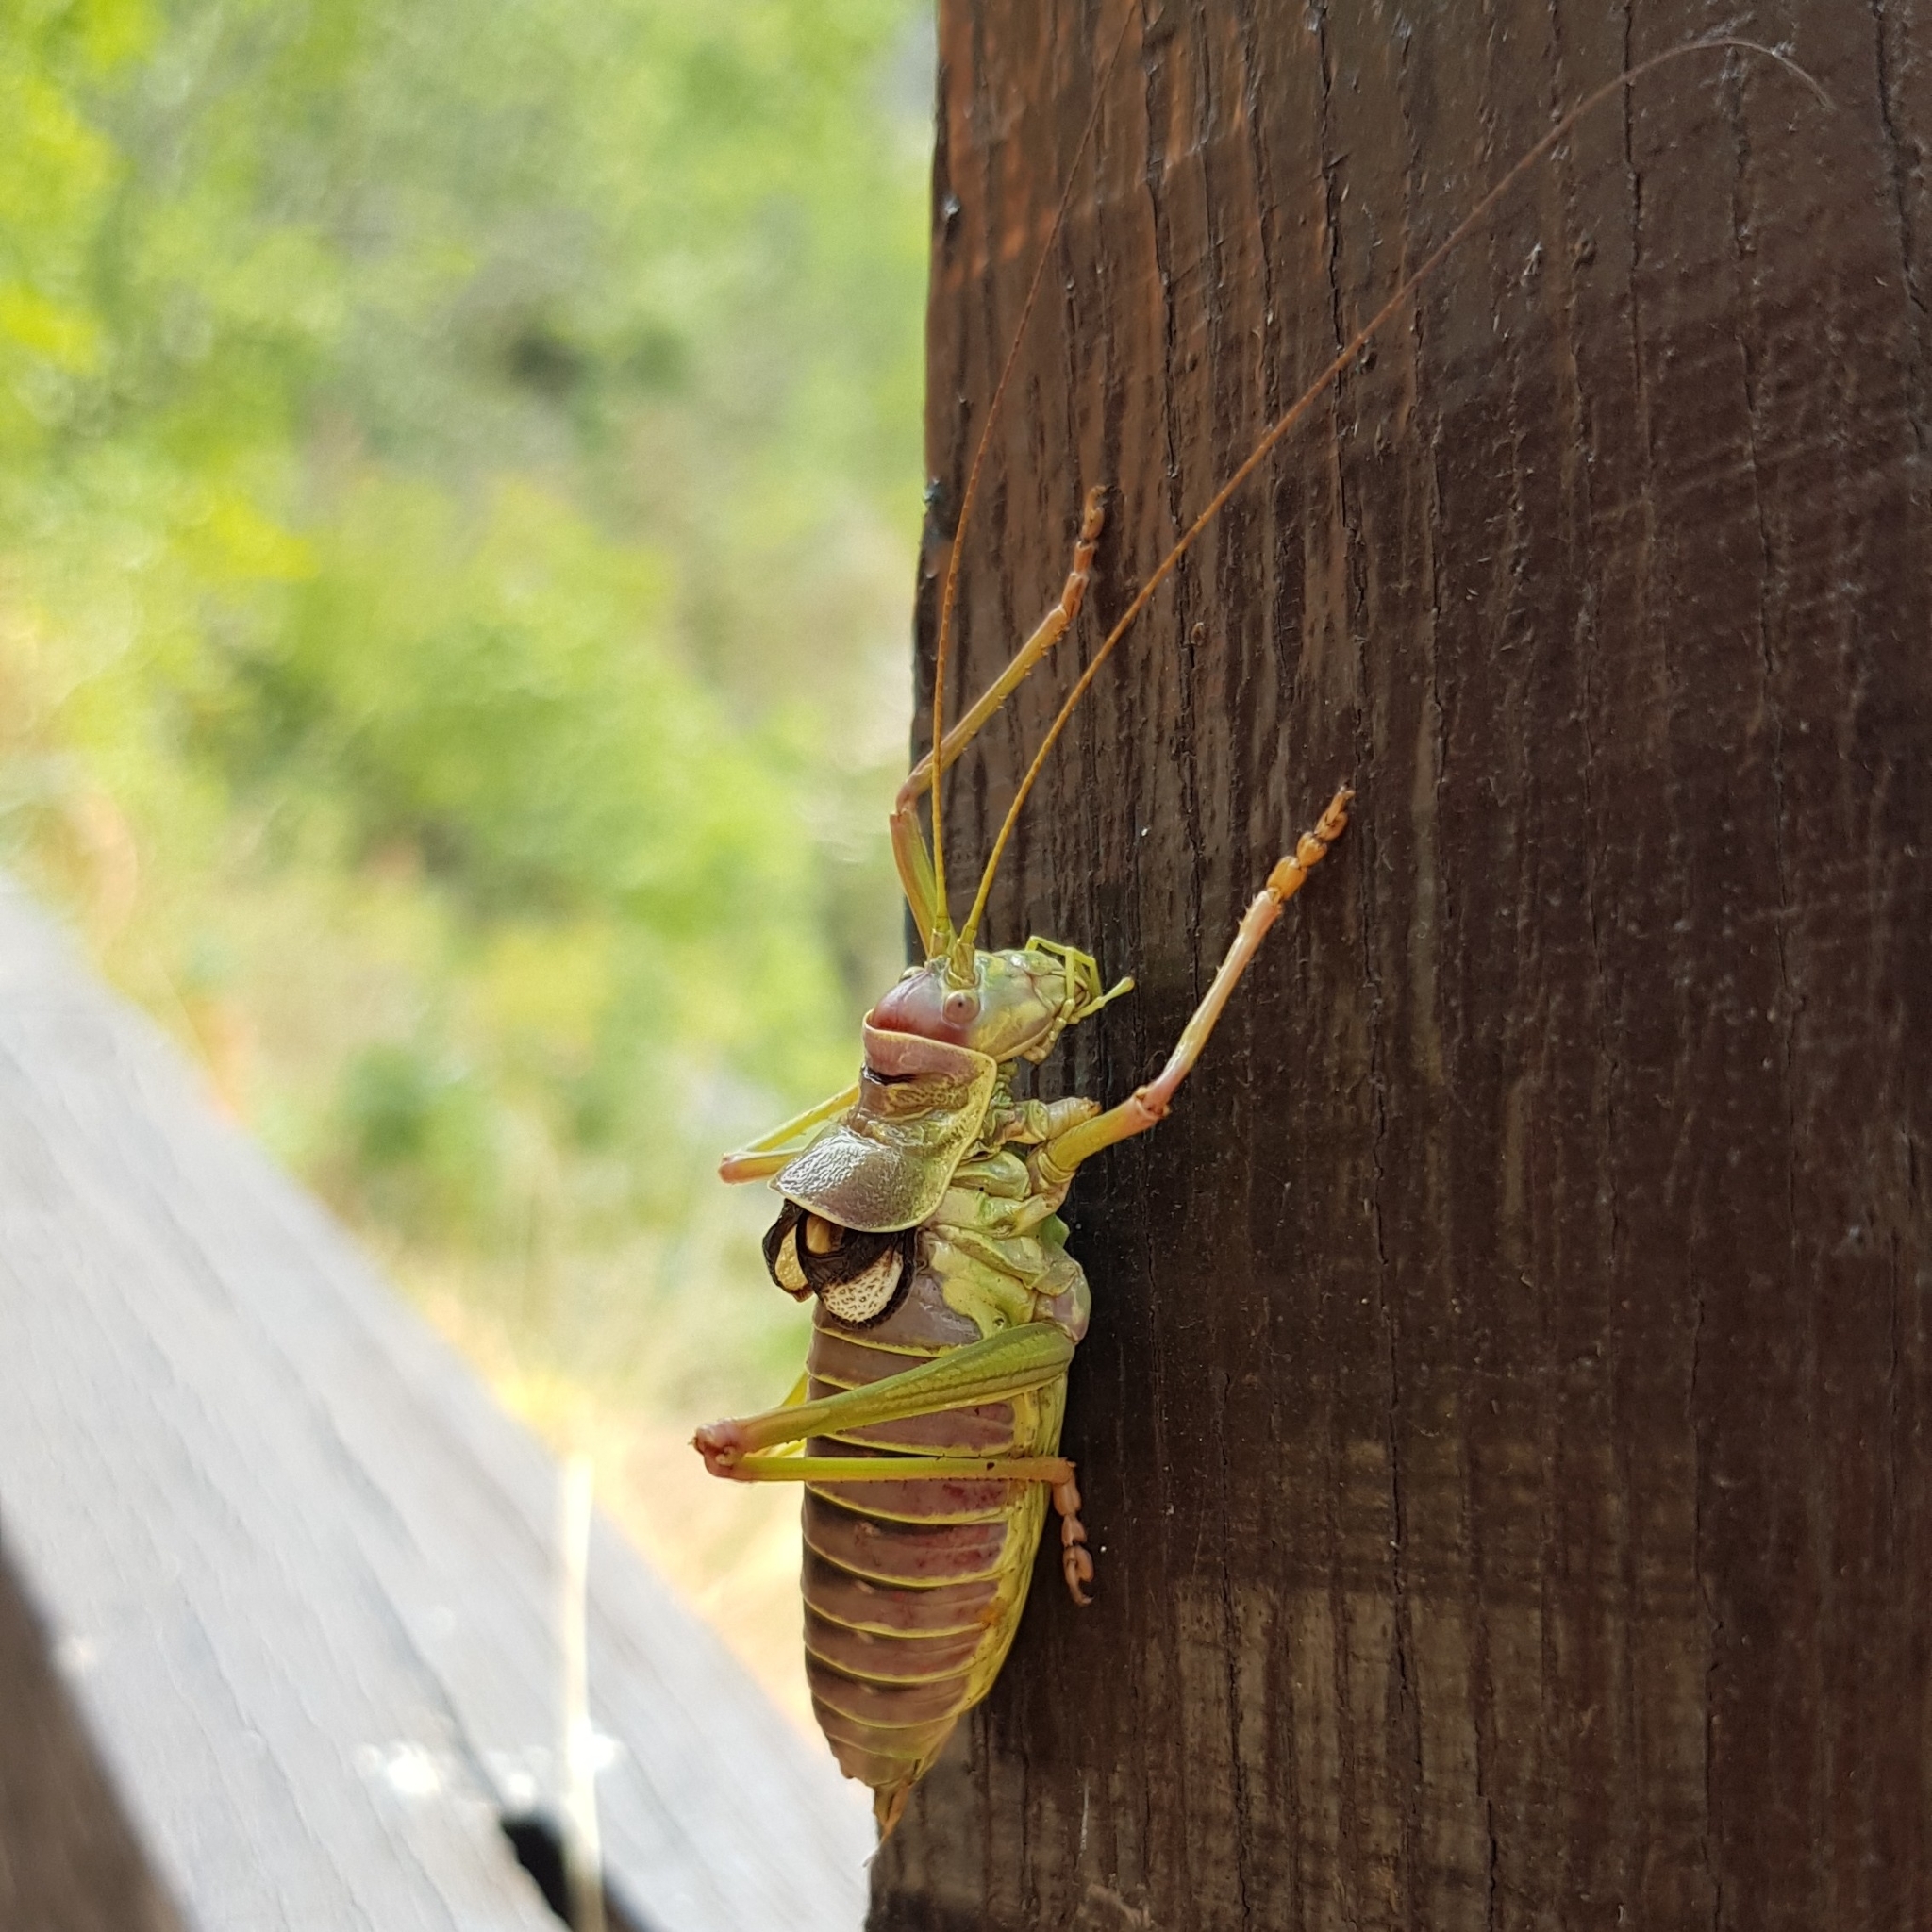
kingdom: Animalia
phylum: Arthropoda
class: Insecta
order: Orthoptera
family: Tettigoniidae
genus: Dinarippiger
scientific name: Dinarippiger discoidalis
